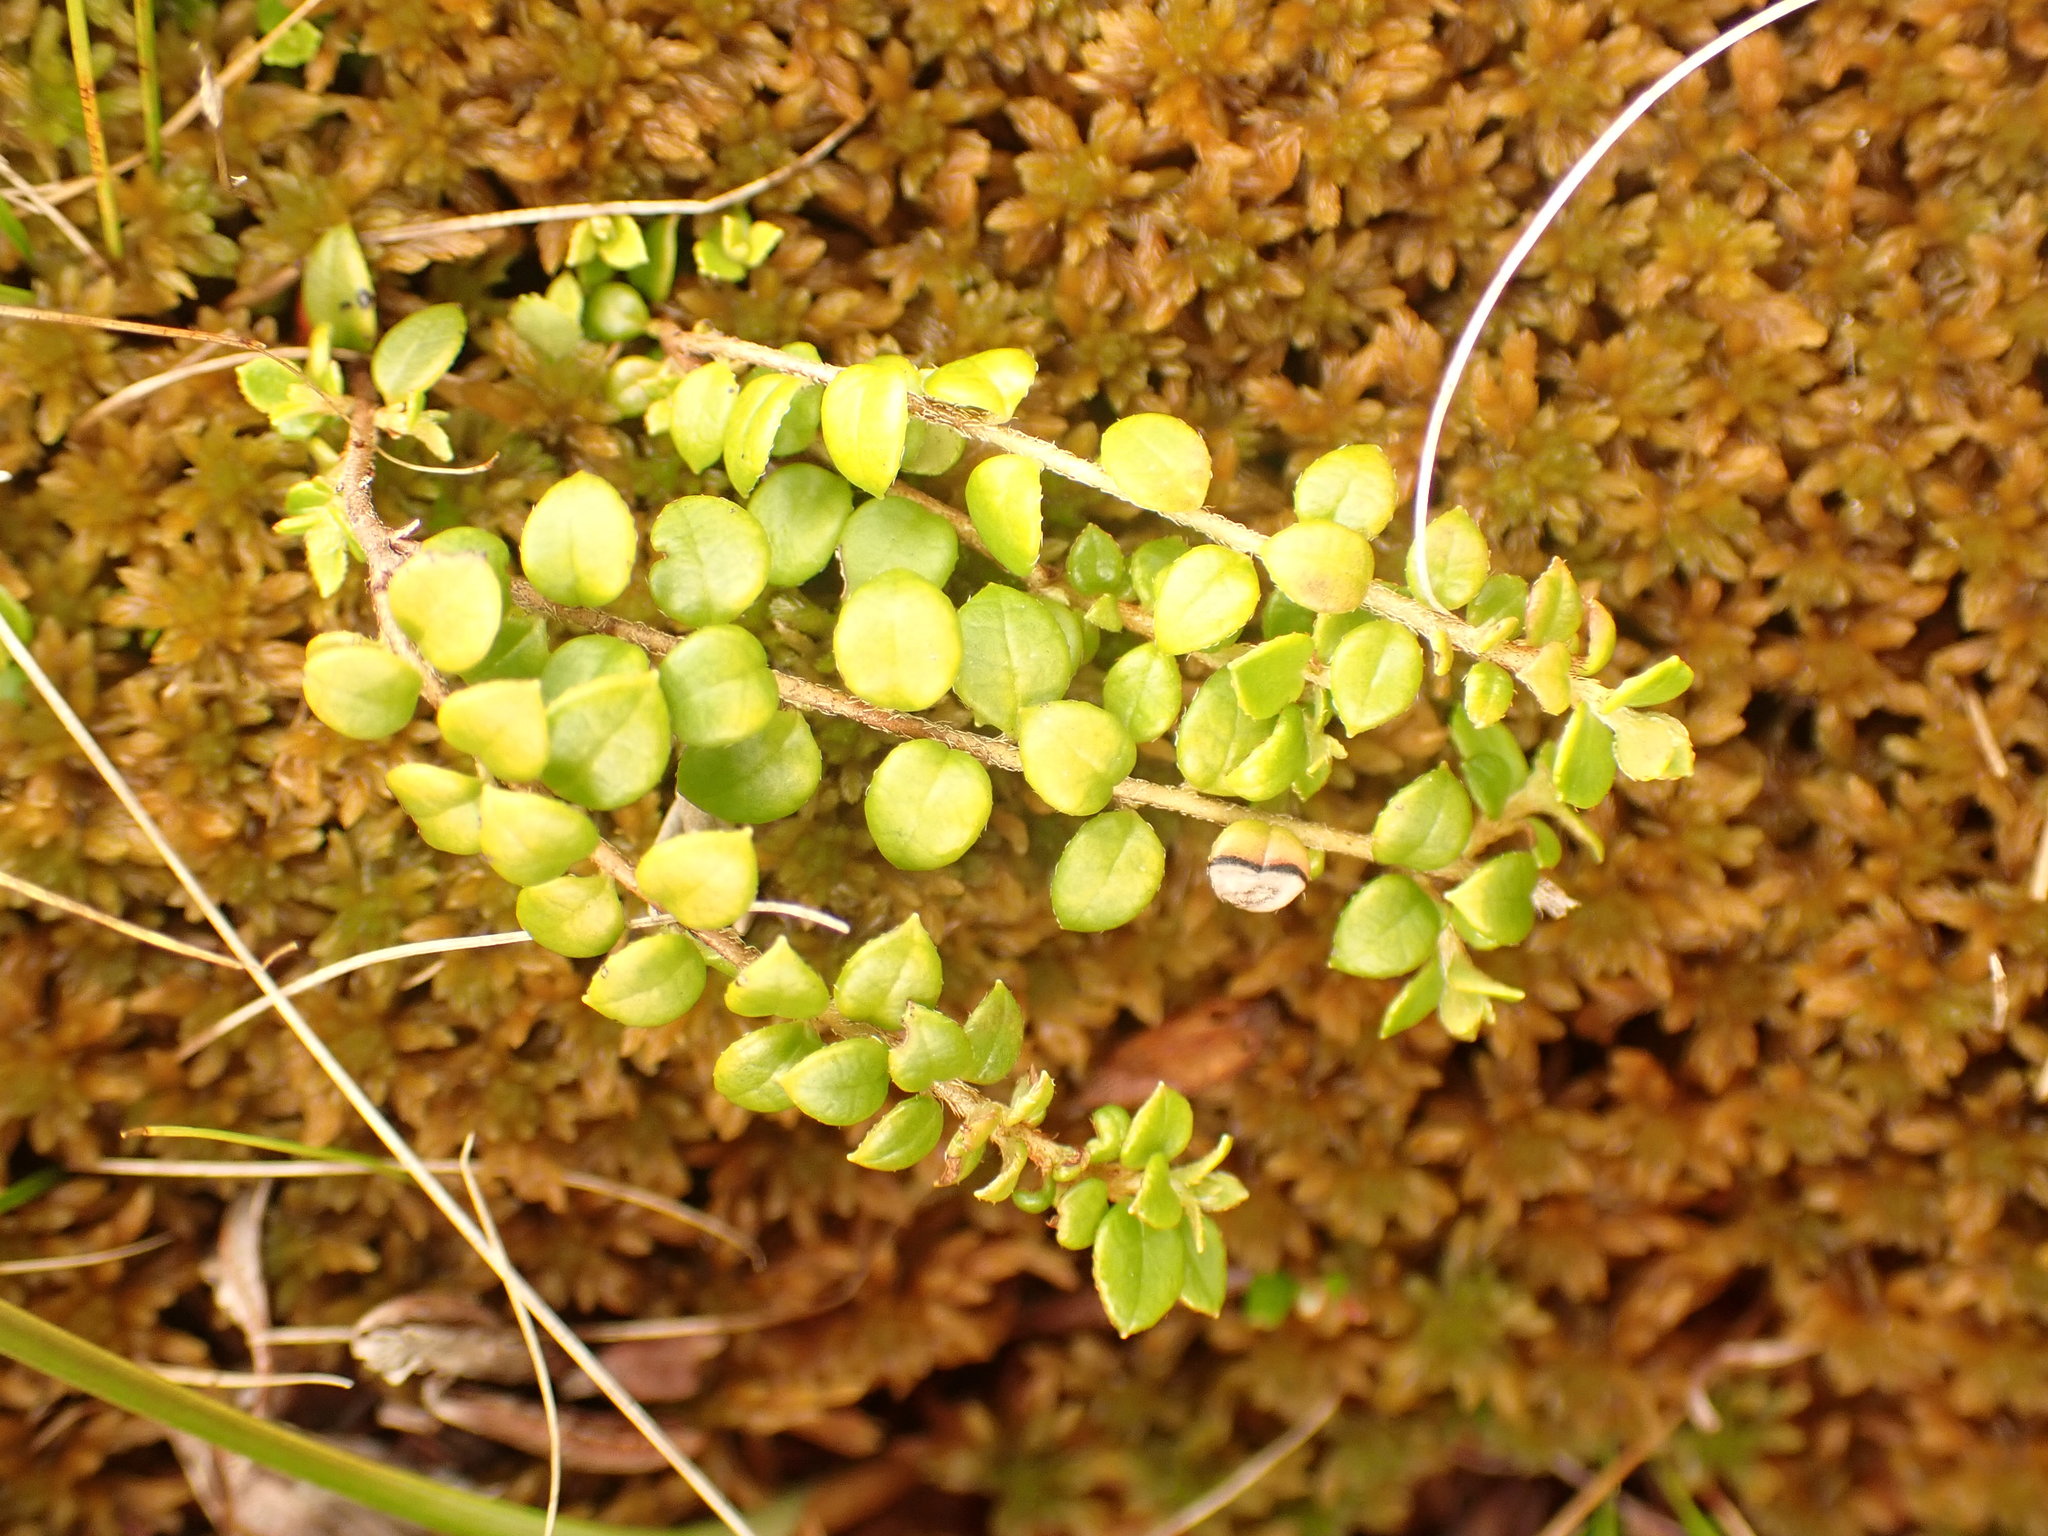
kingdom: Plantae
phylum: Tracheophyta
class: Magnoliopsida
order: Ericales
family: Ericaceae
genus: Gaultheria
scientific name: Gaultheria hispidula
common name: Cancer wintergreen
